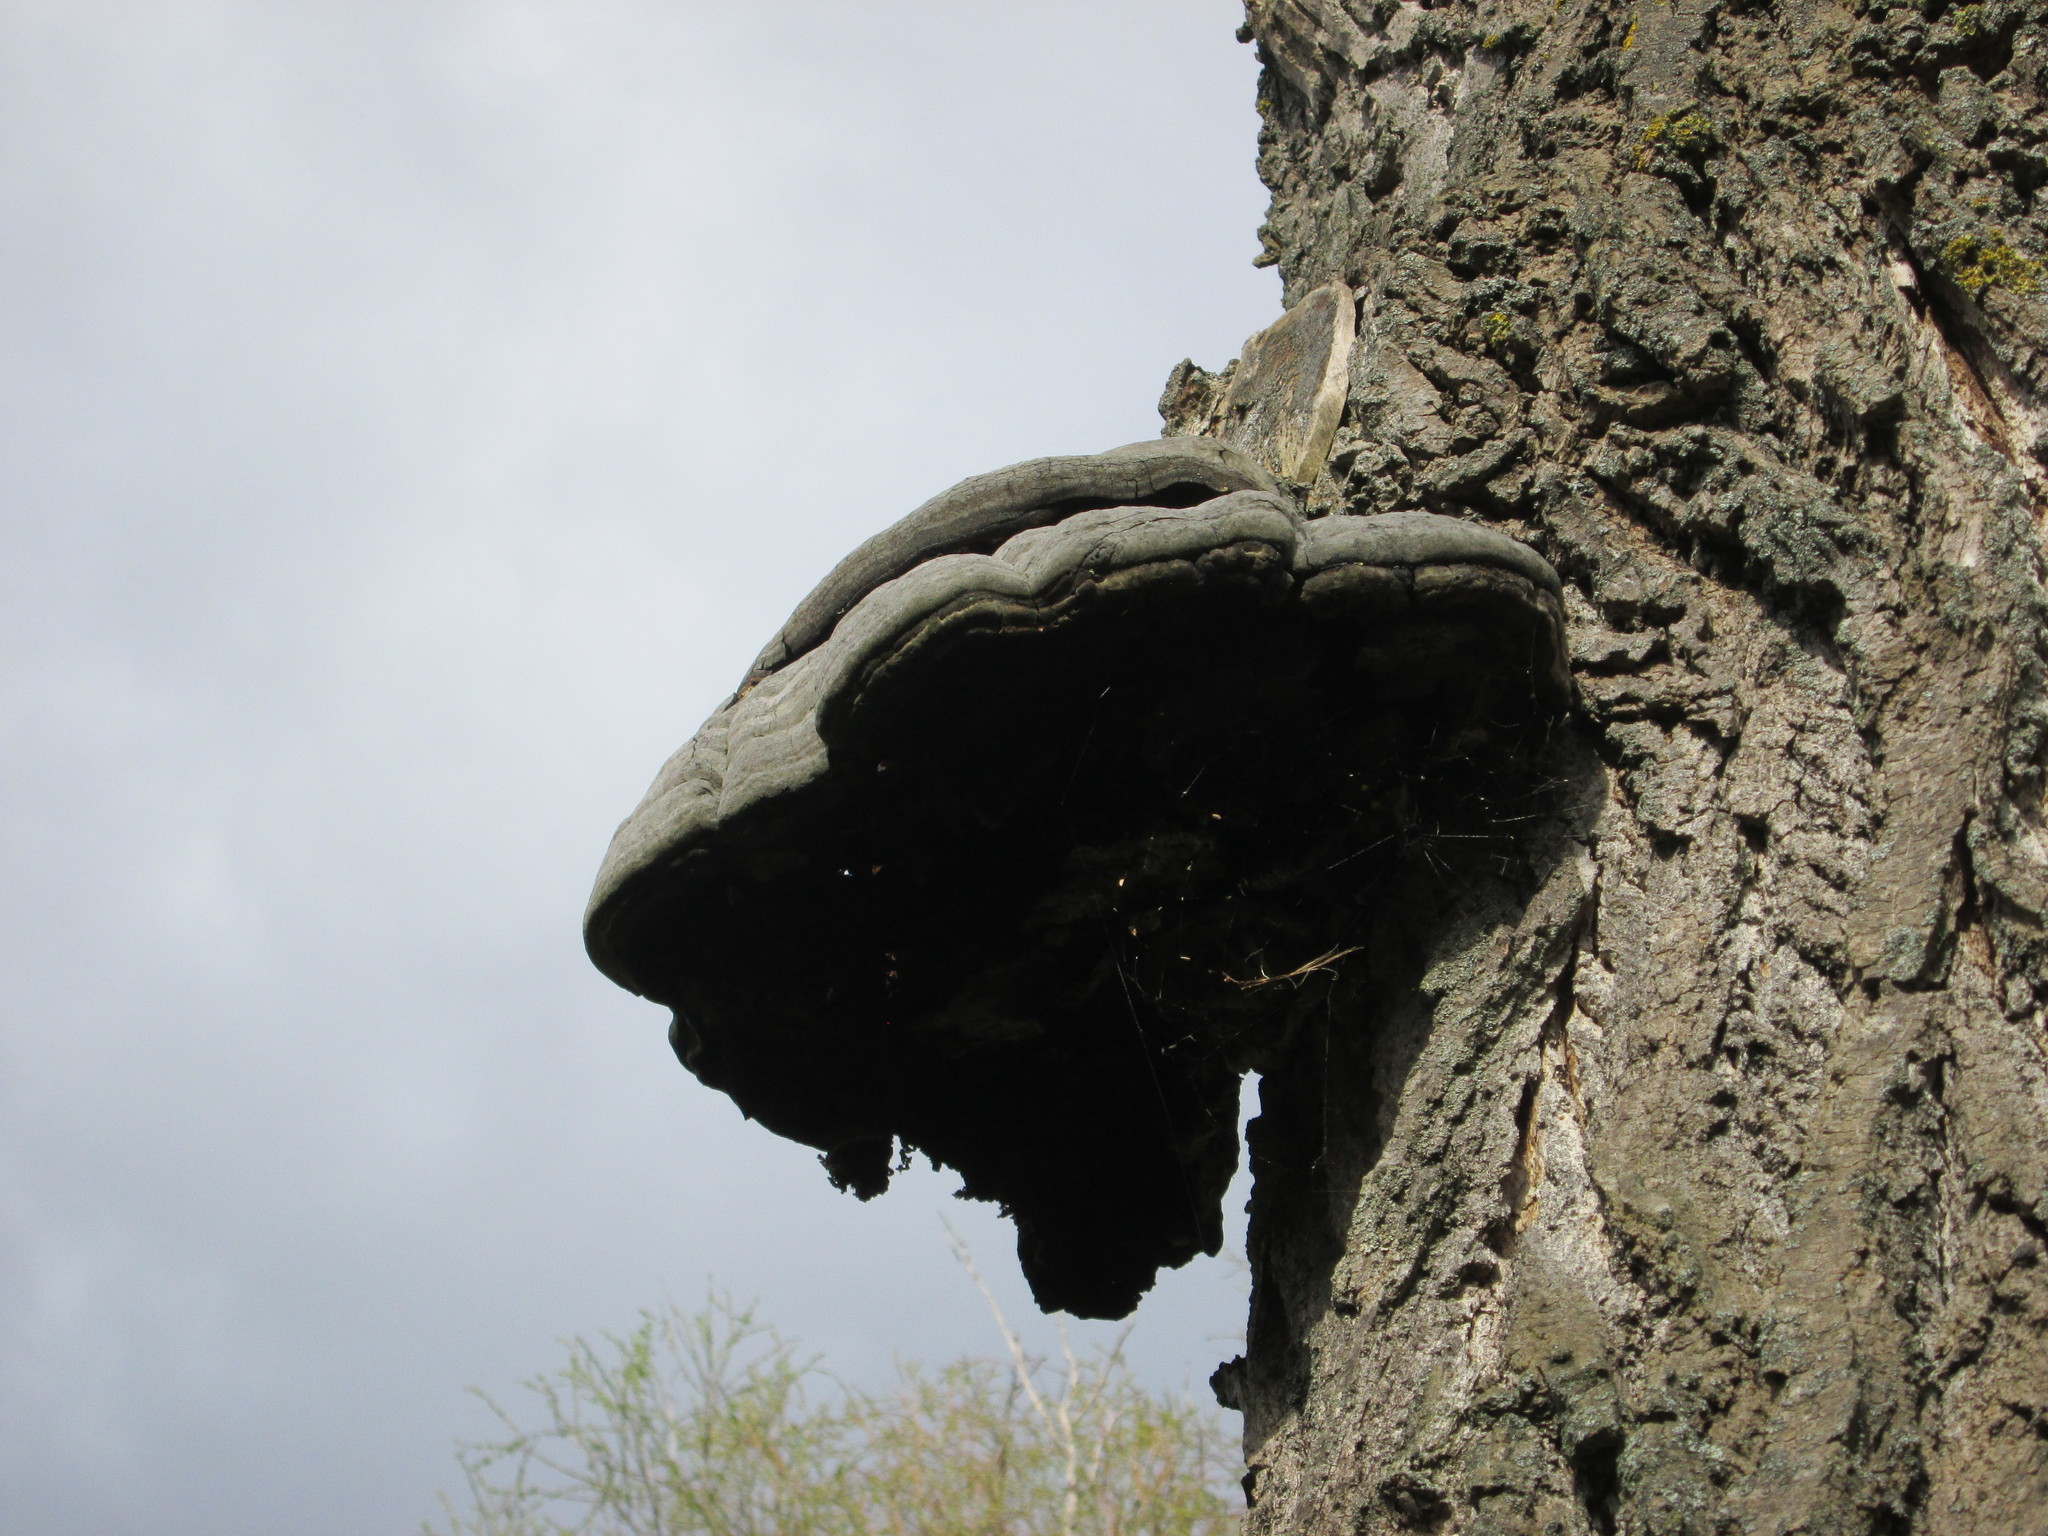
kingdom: Fungi
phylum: Basidiomycota
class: Agaricomycetes
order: Polyporales
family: Polyporaceae
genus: Fomes
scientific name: Fomes fomentarius
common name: Hoof fungus
